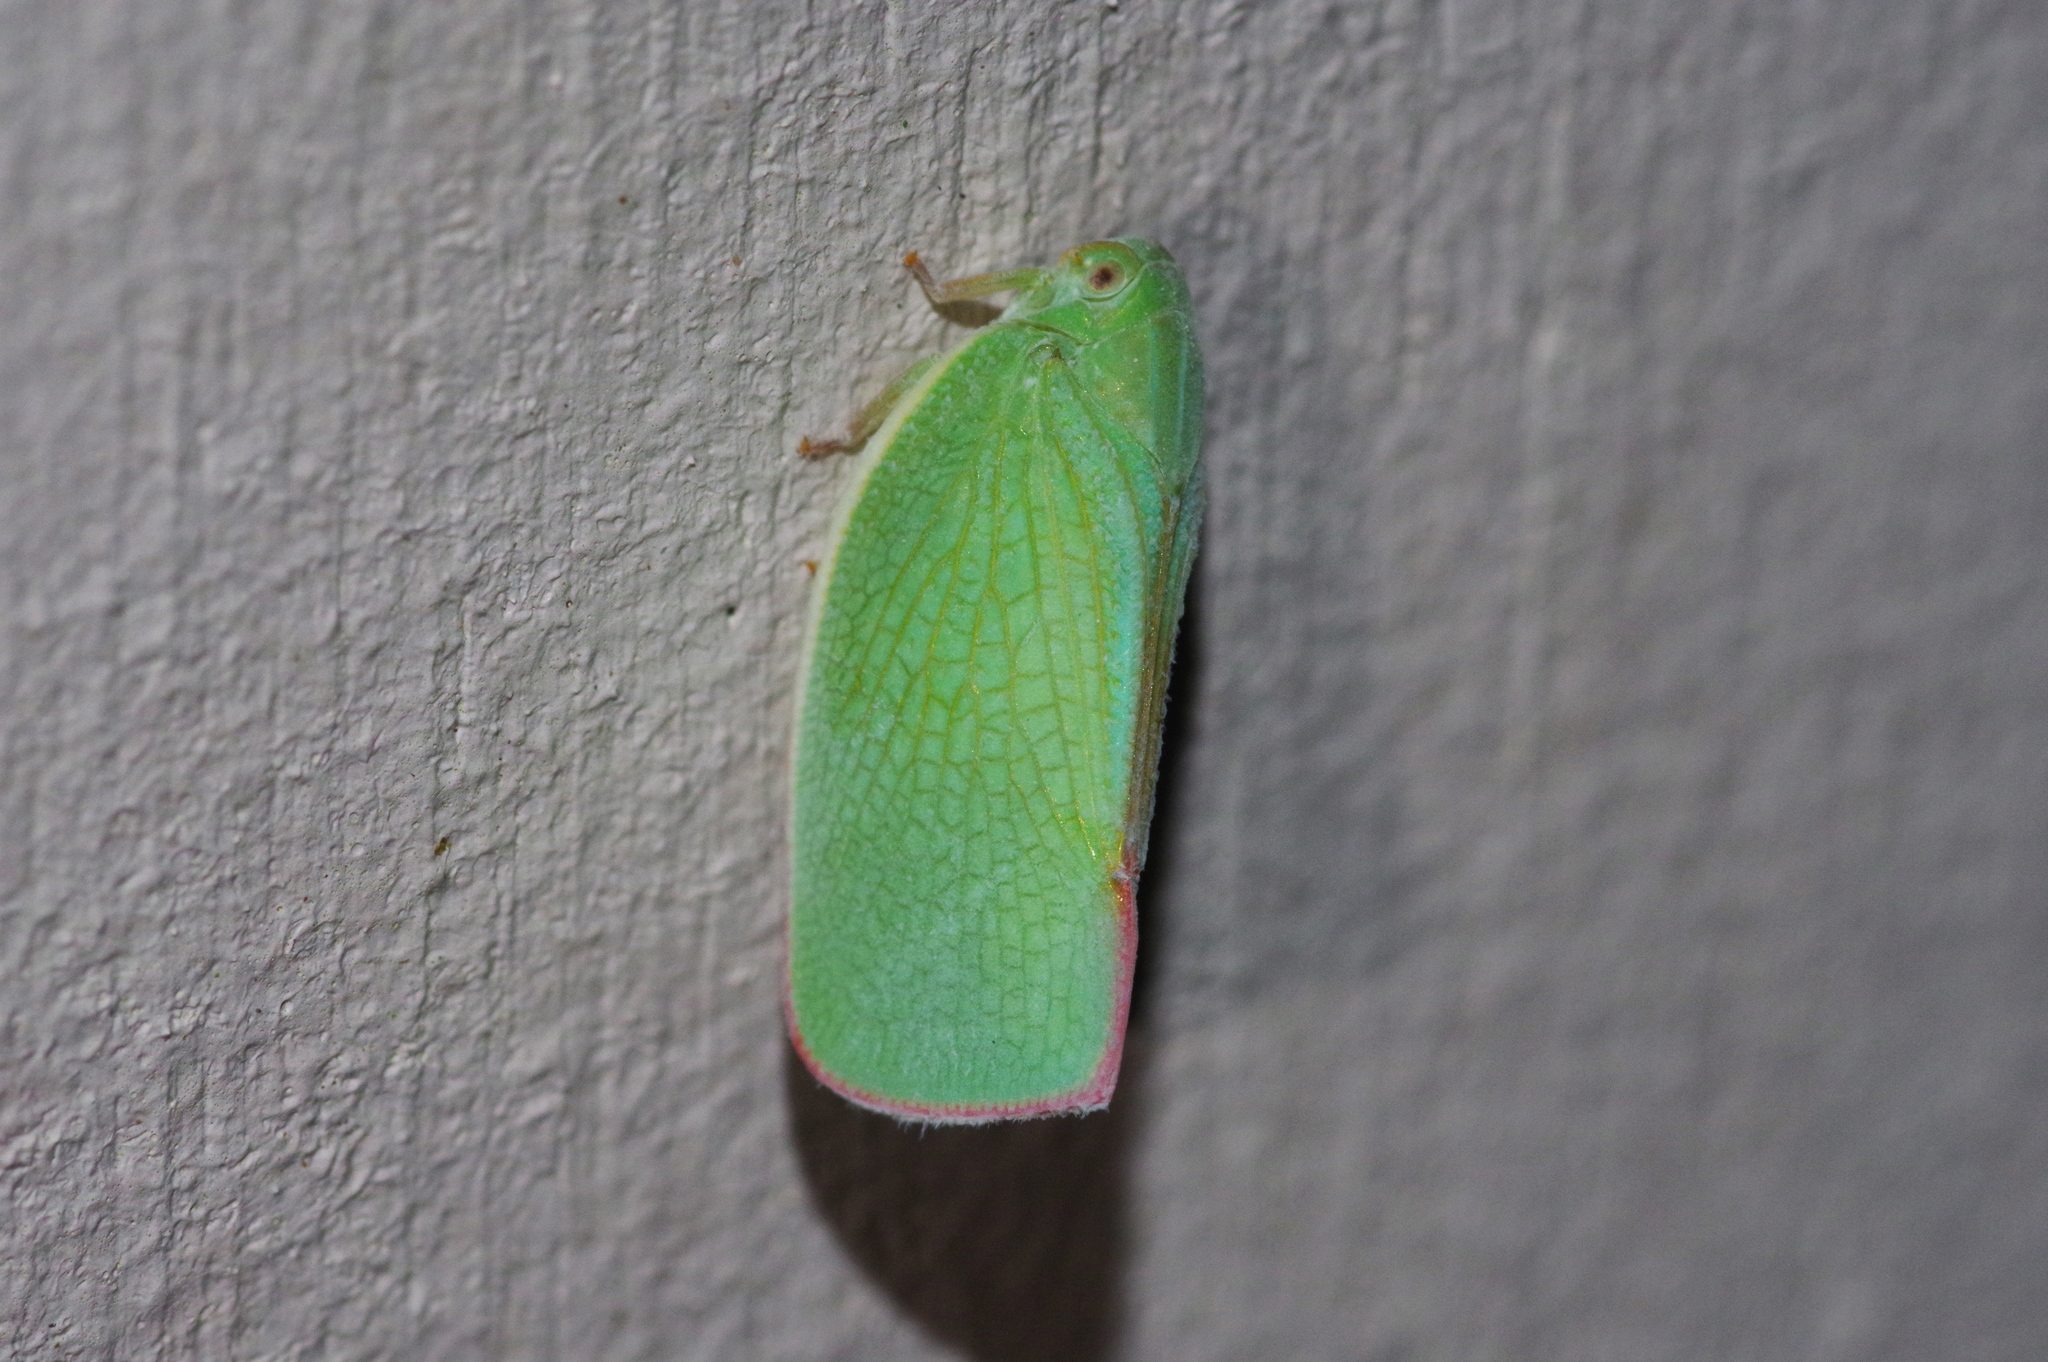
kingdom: Animalia
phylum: Arthropoda
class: Insecta
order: Hemiptera
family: Flatidae
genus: Geisha
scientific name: Geisha distinctissima
